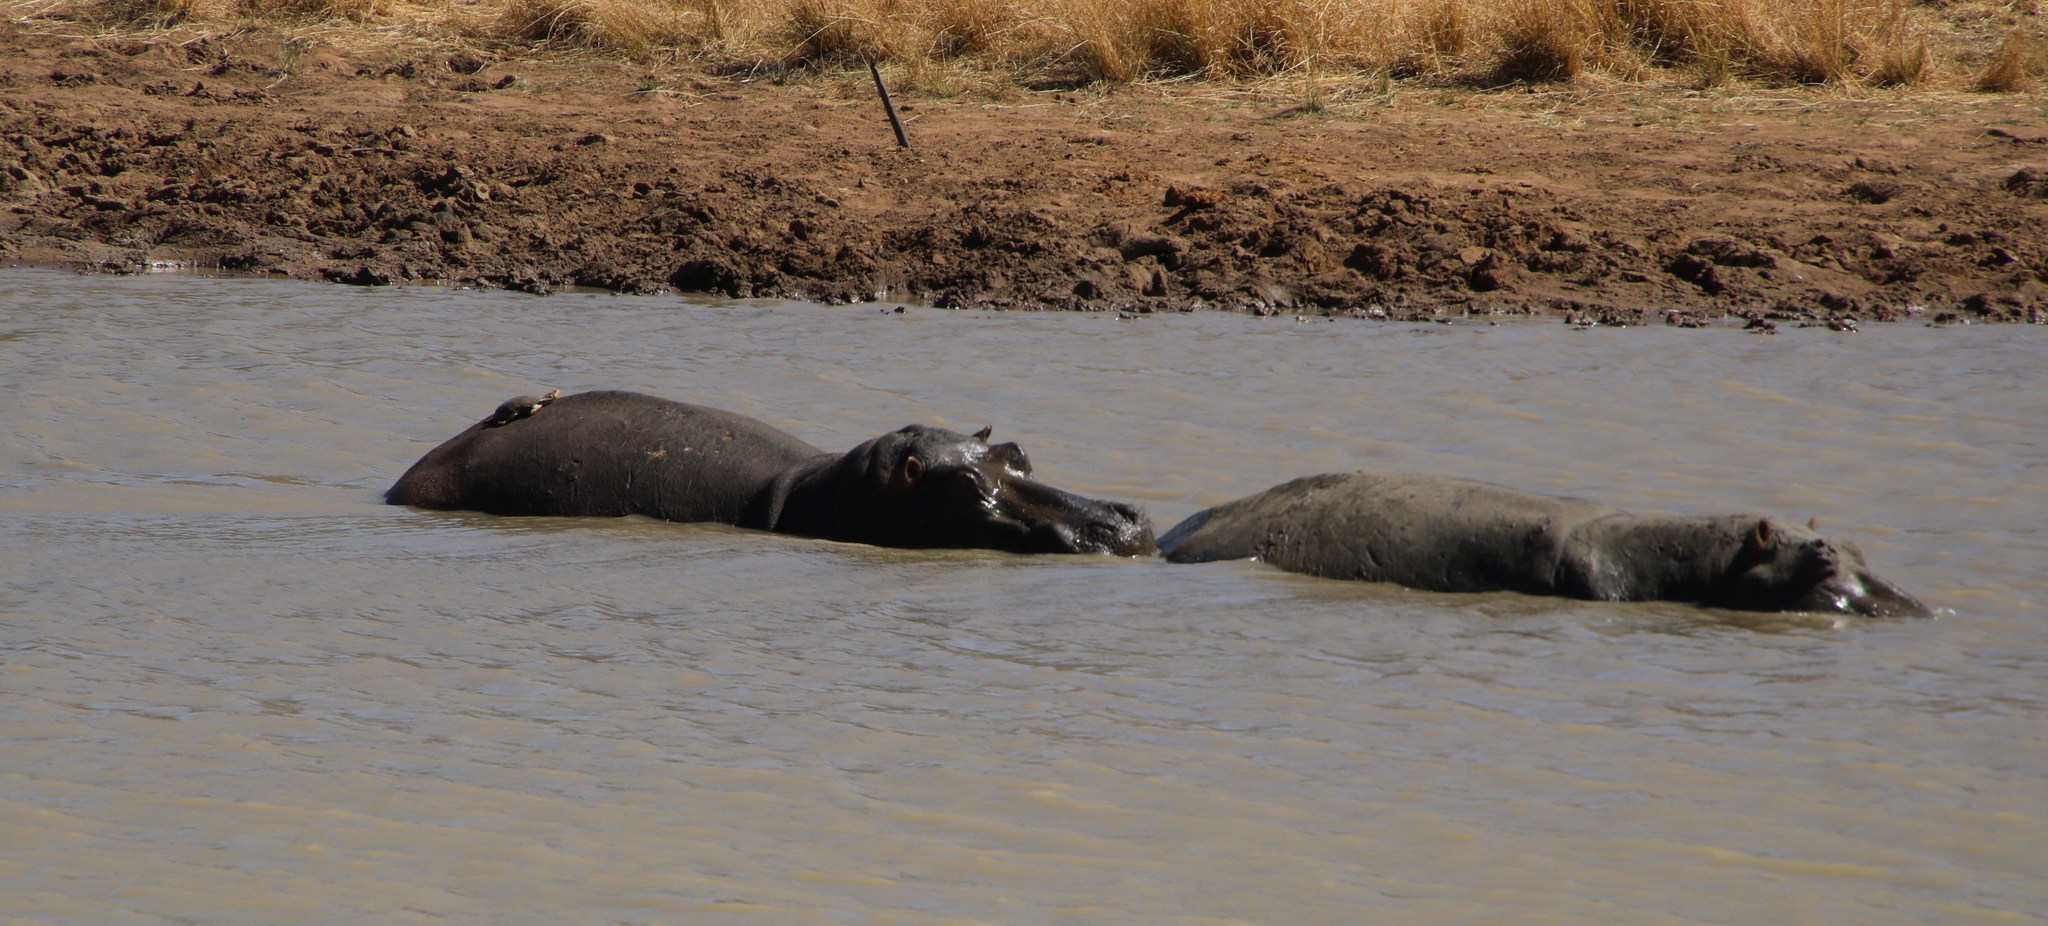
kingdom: Animalia
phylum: Chordata
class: Mammalia
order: Artiodactyla
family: Hippopotamidae
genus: Hippopotamus
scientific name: Hippopotamus amphibius
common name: Common hippopotamus
